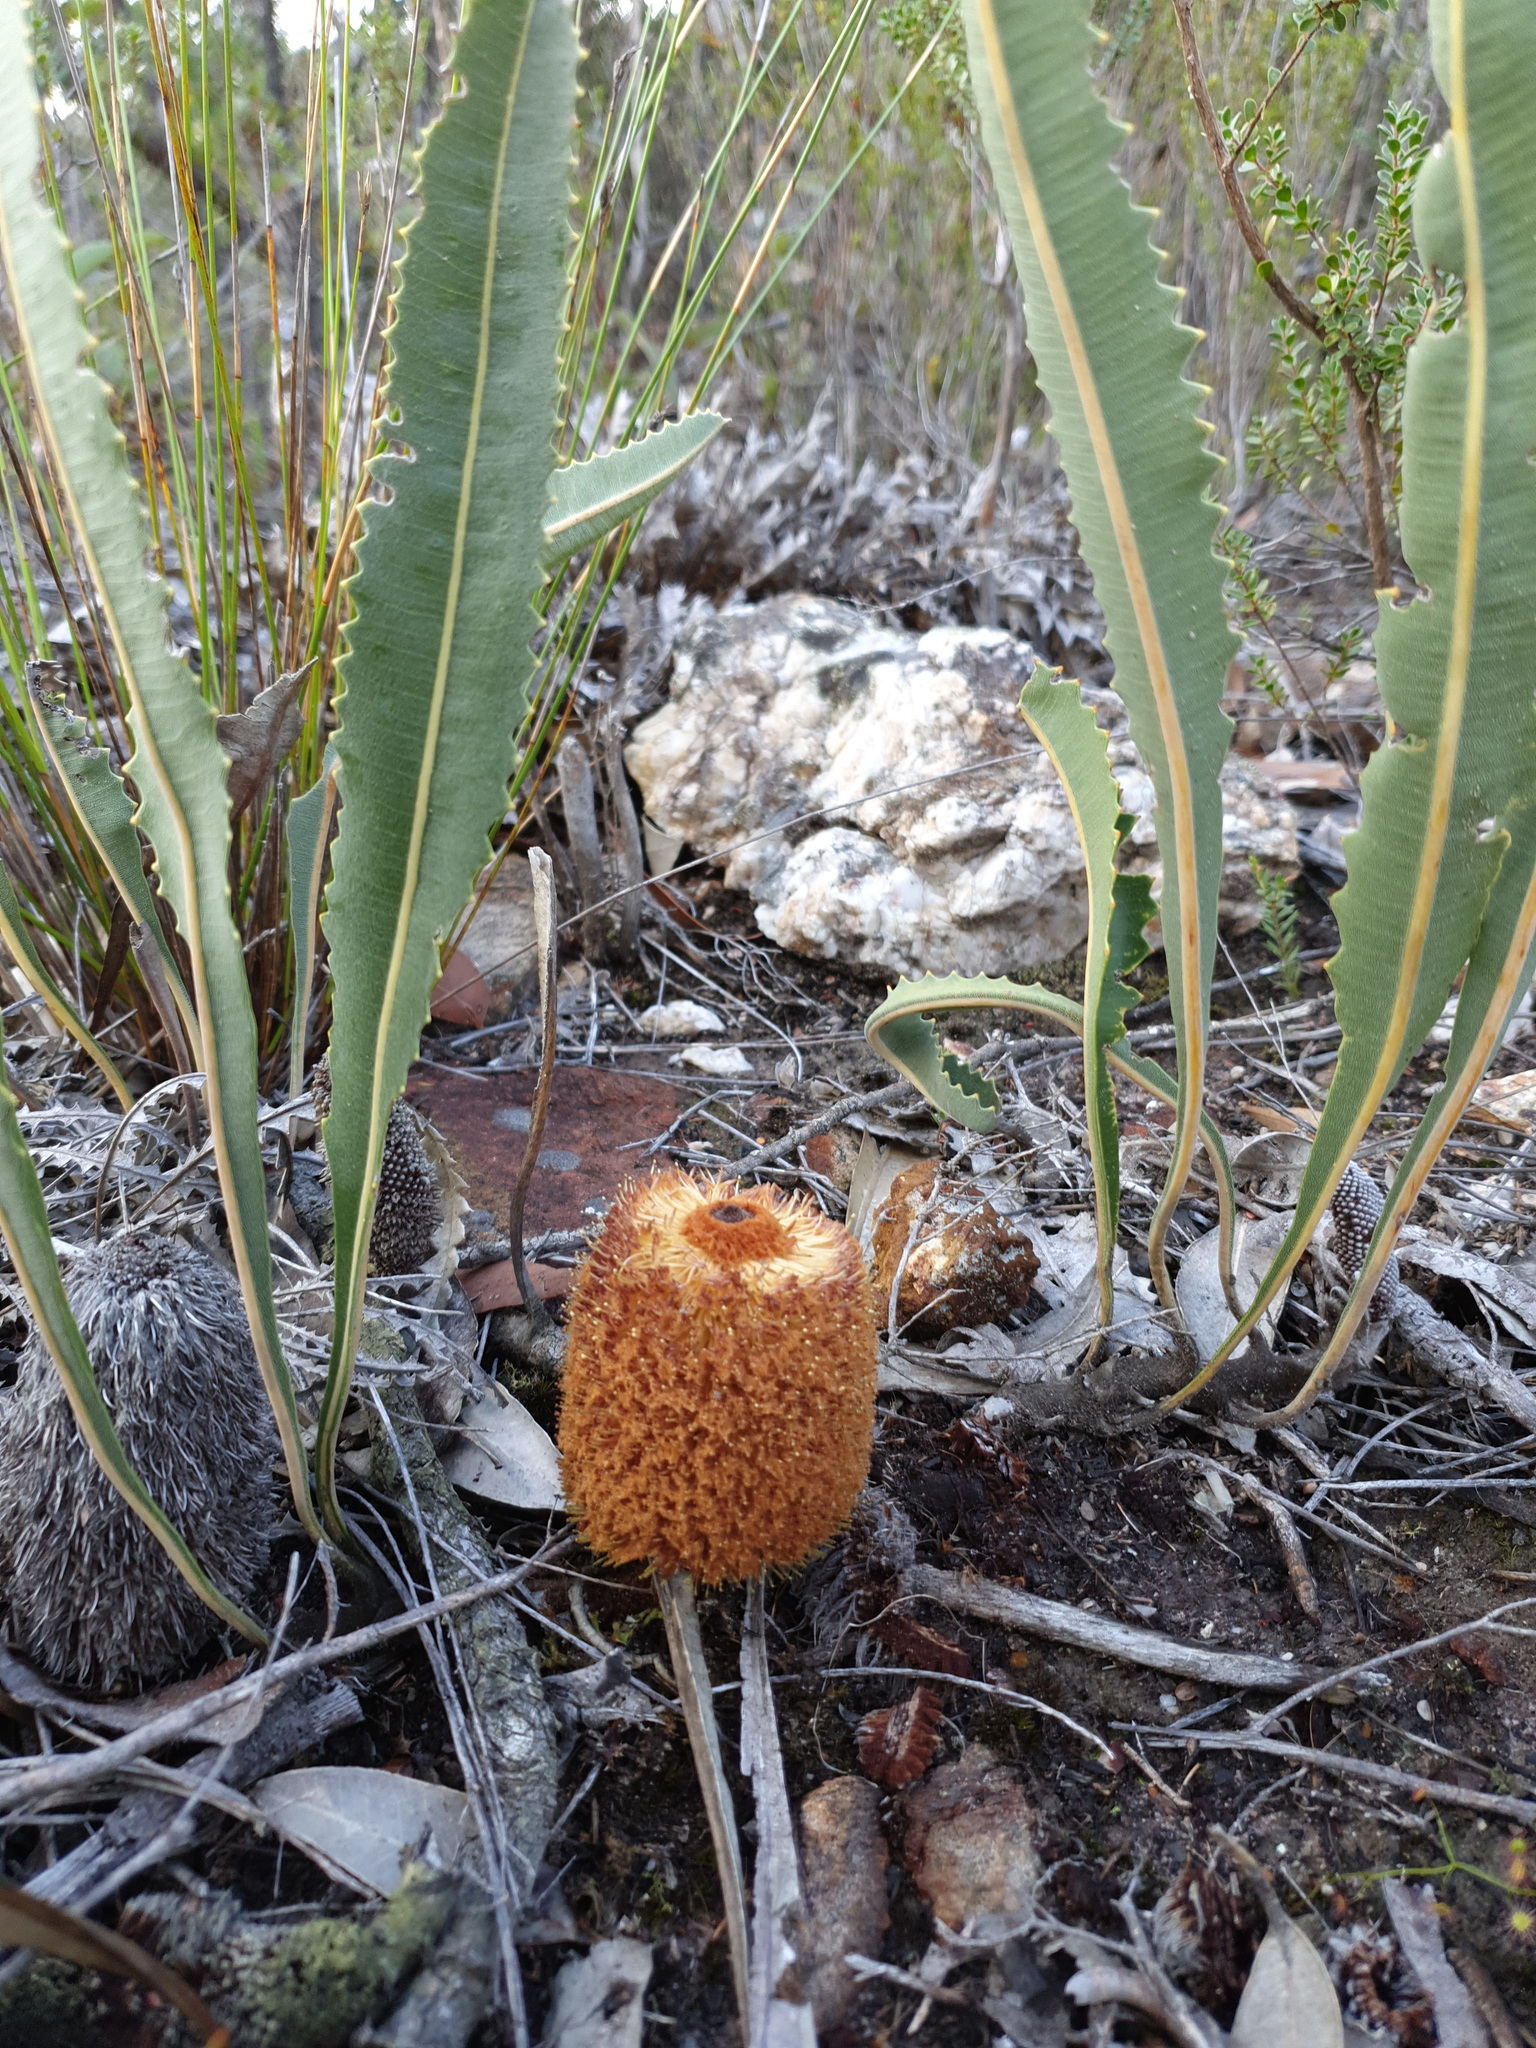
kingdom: Plantae
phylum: Tracheophyta
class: Magnoliopsida
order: Proteales
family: Proteaceae
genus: Banksia
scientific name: Banksia gardneri
